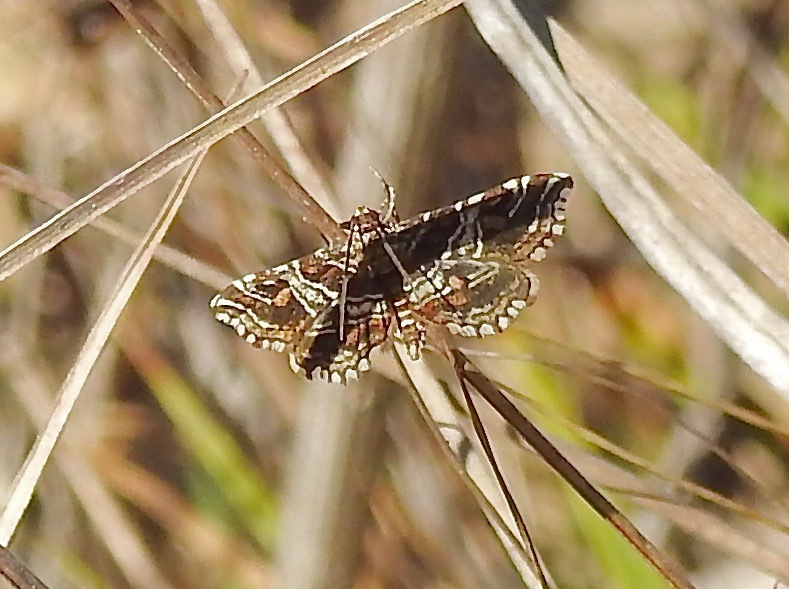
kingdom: Animalia
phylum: Arthropoda
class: Insecta
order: Lepidoptera
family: Crambidae
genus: Contiger
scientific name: Contiger vittatalis
